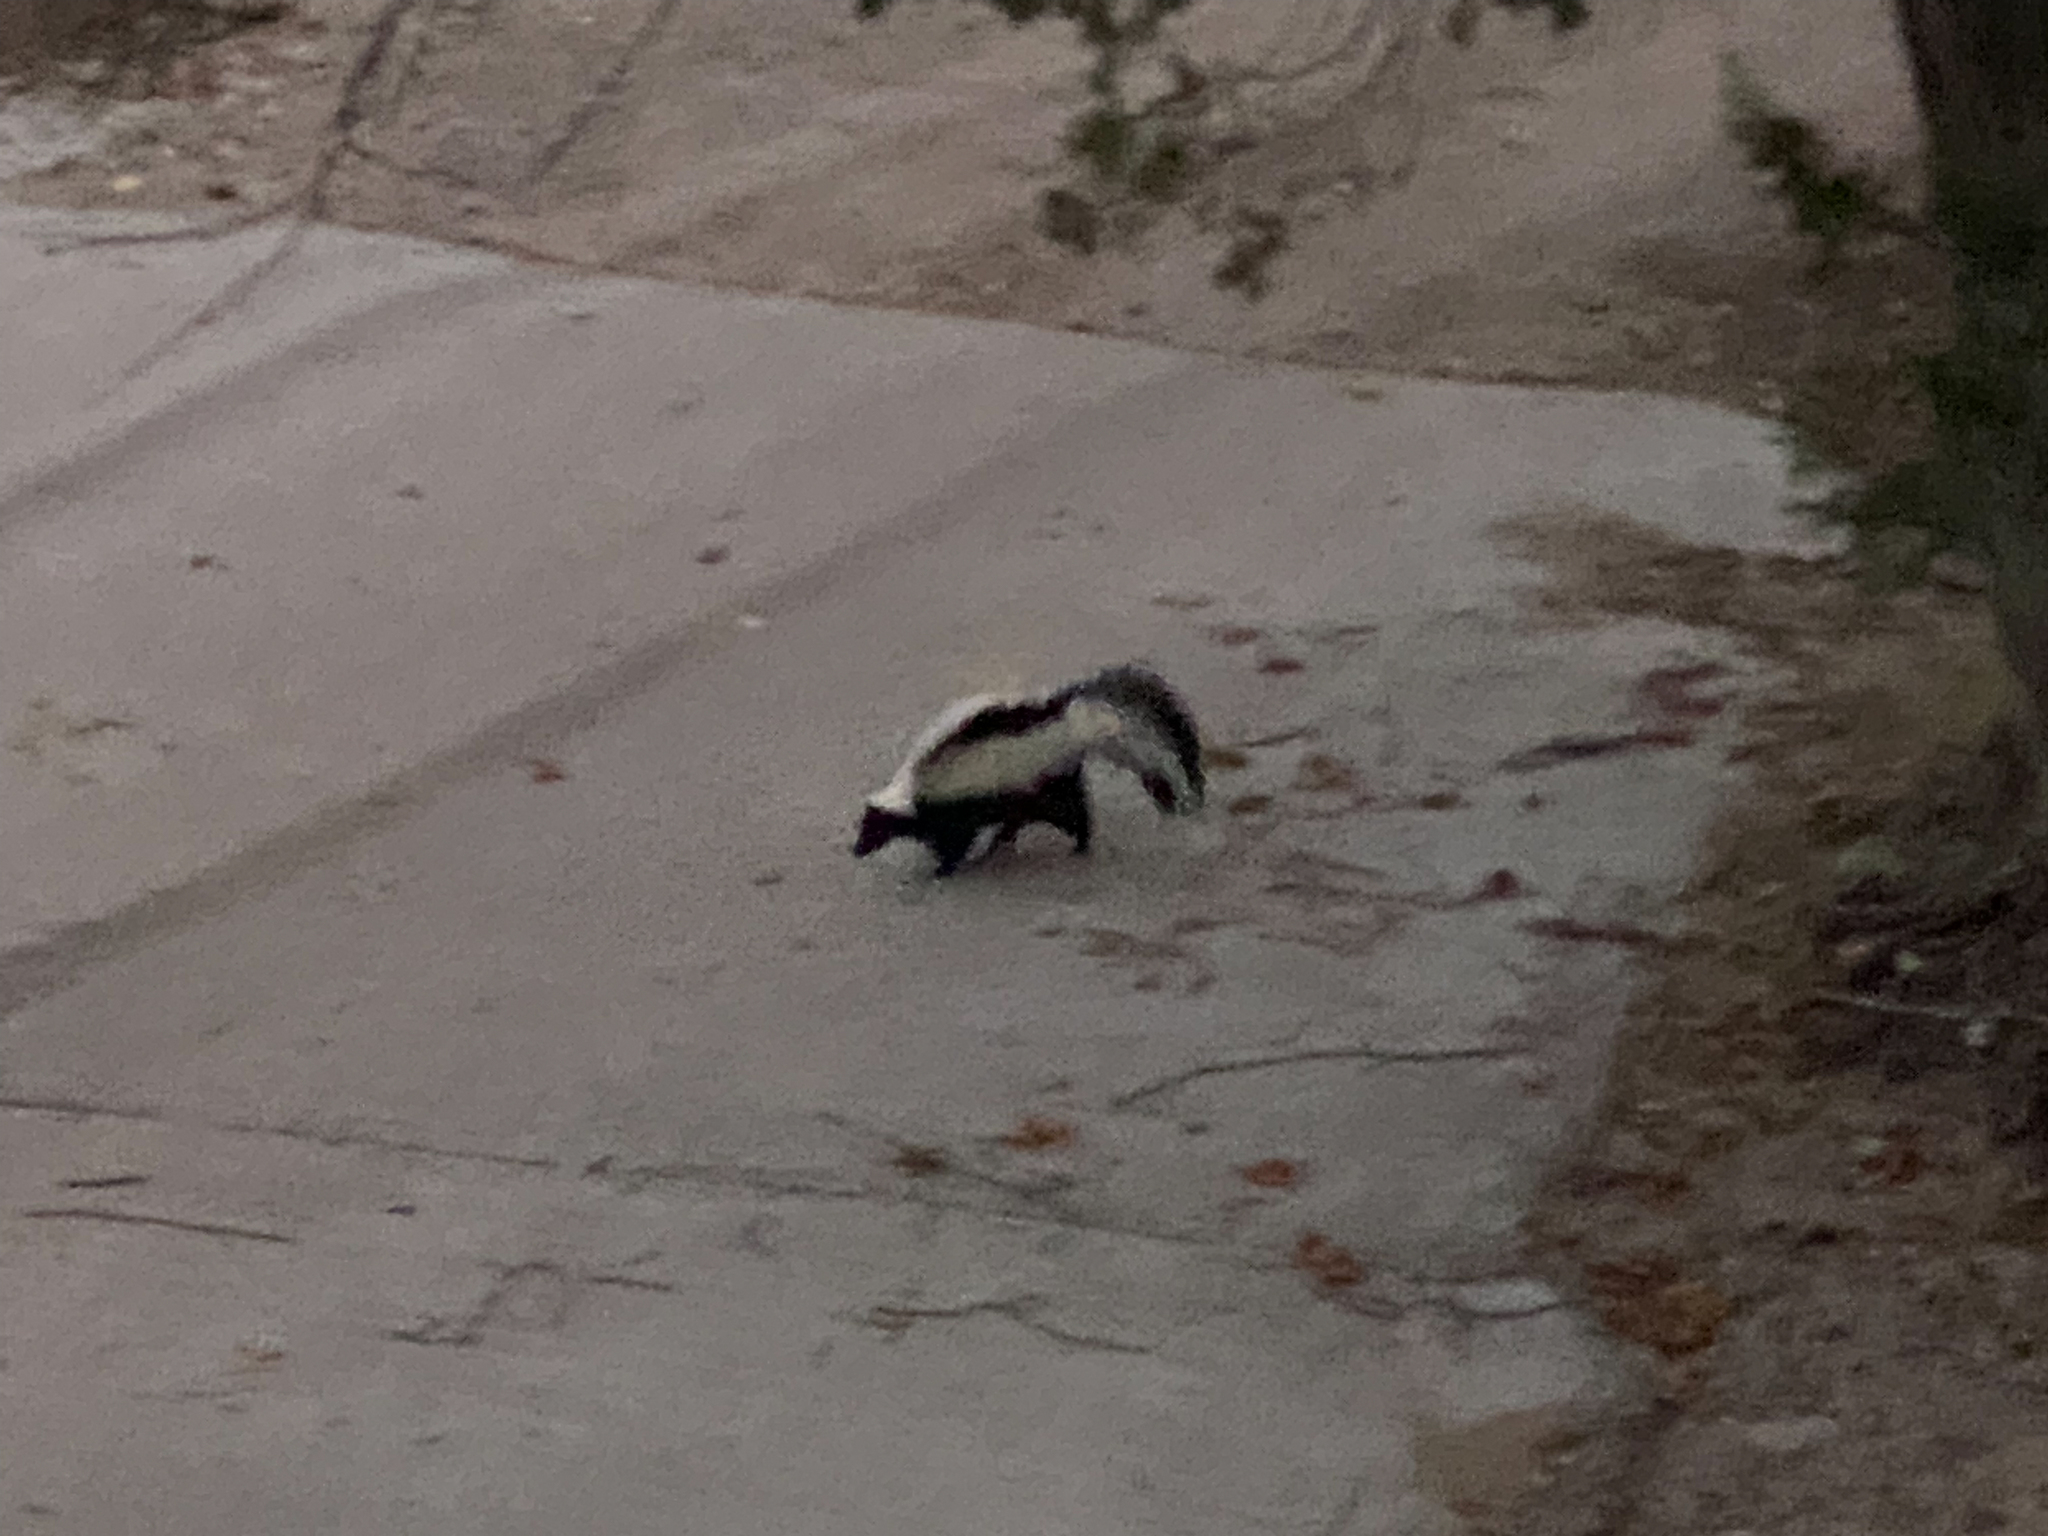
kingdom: Animalia
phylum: Chordata
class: Mammalia
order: Carnivora
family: Mephitidae
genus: Mephitis
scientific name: Mephitis mephitis
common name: Striped skunk
